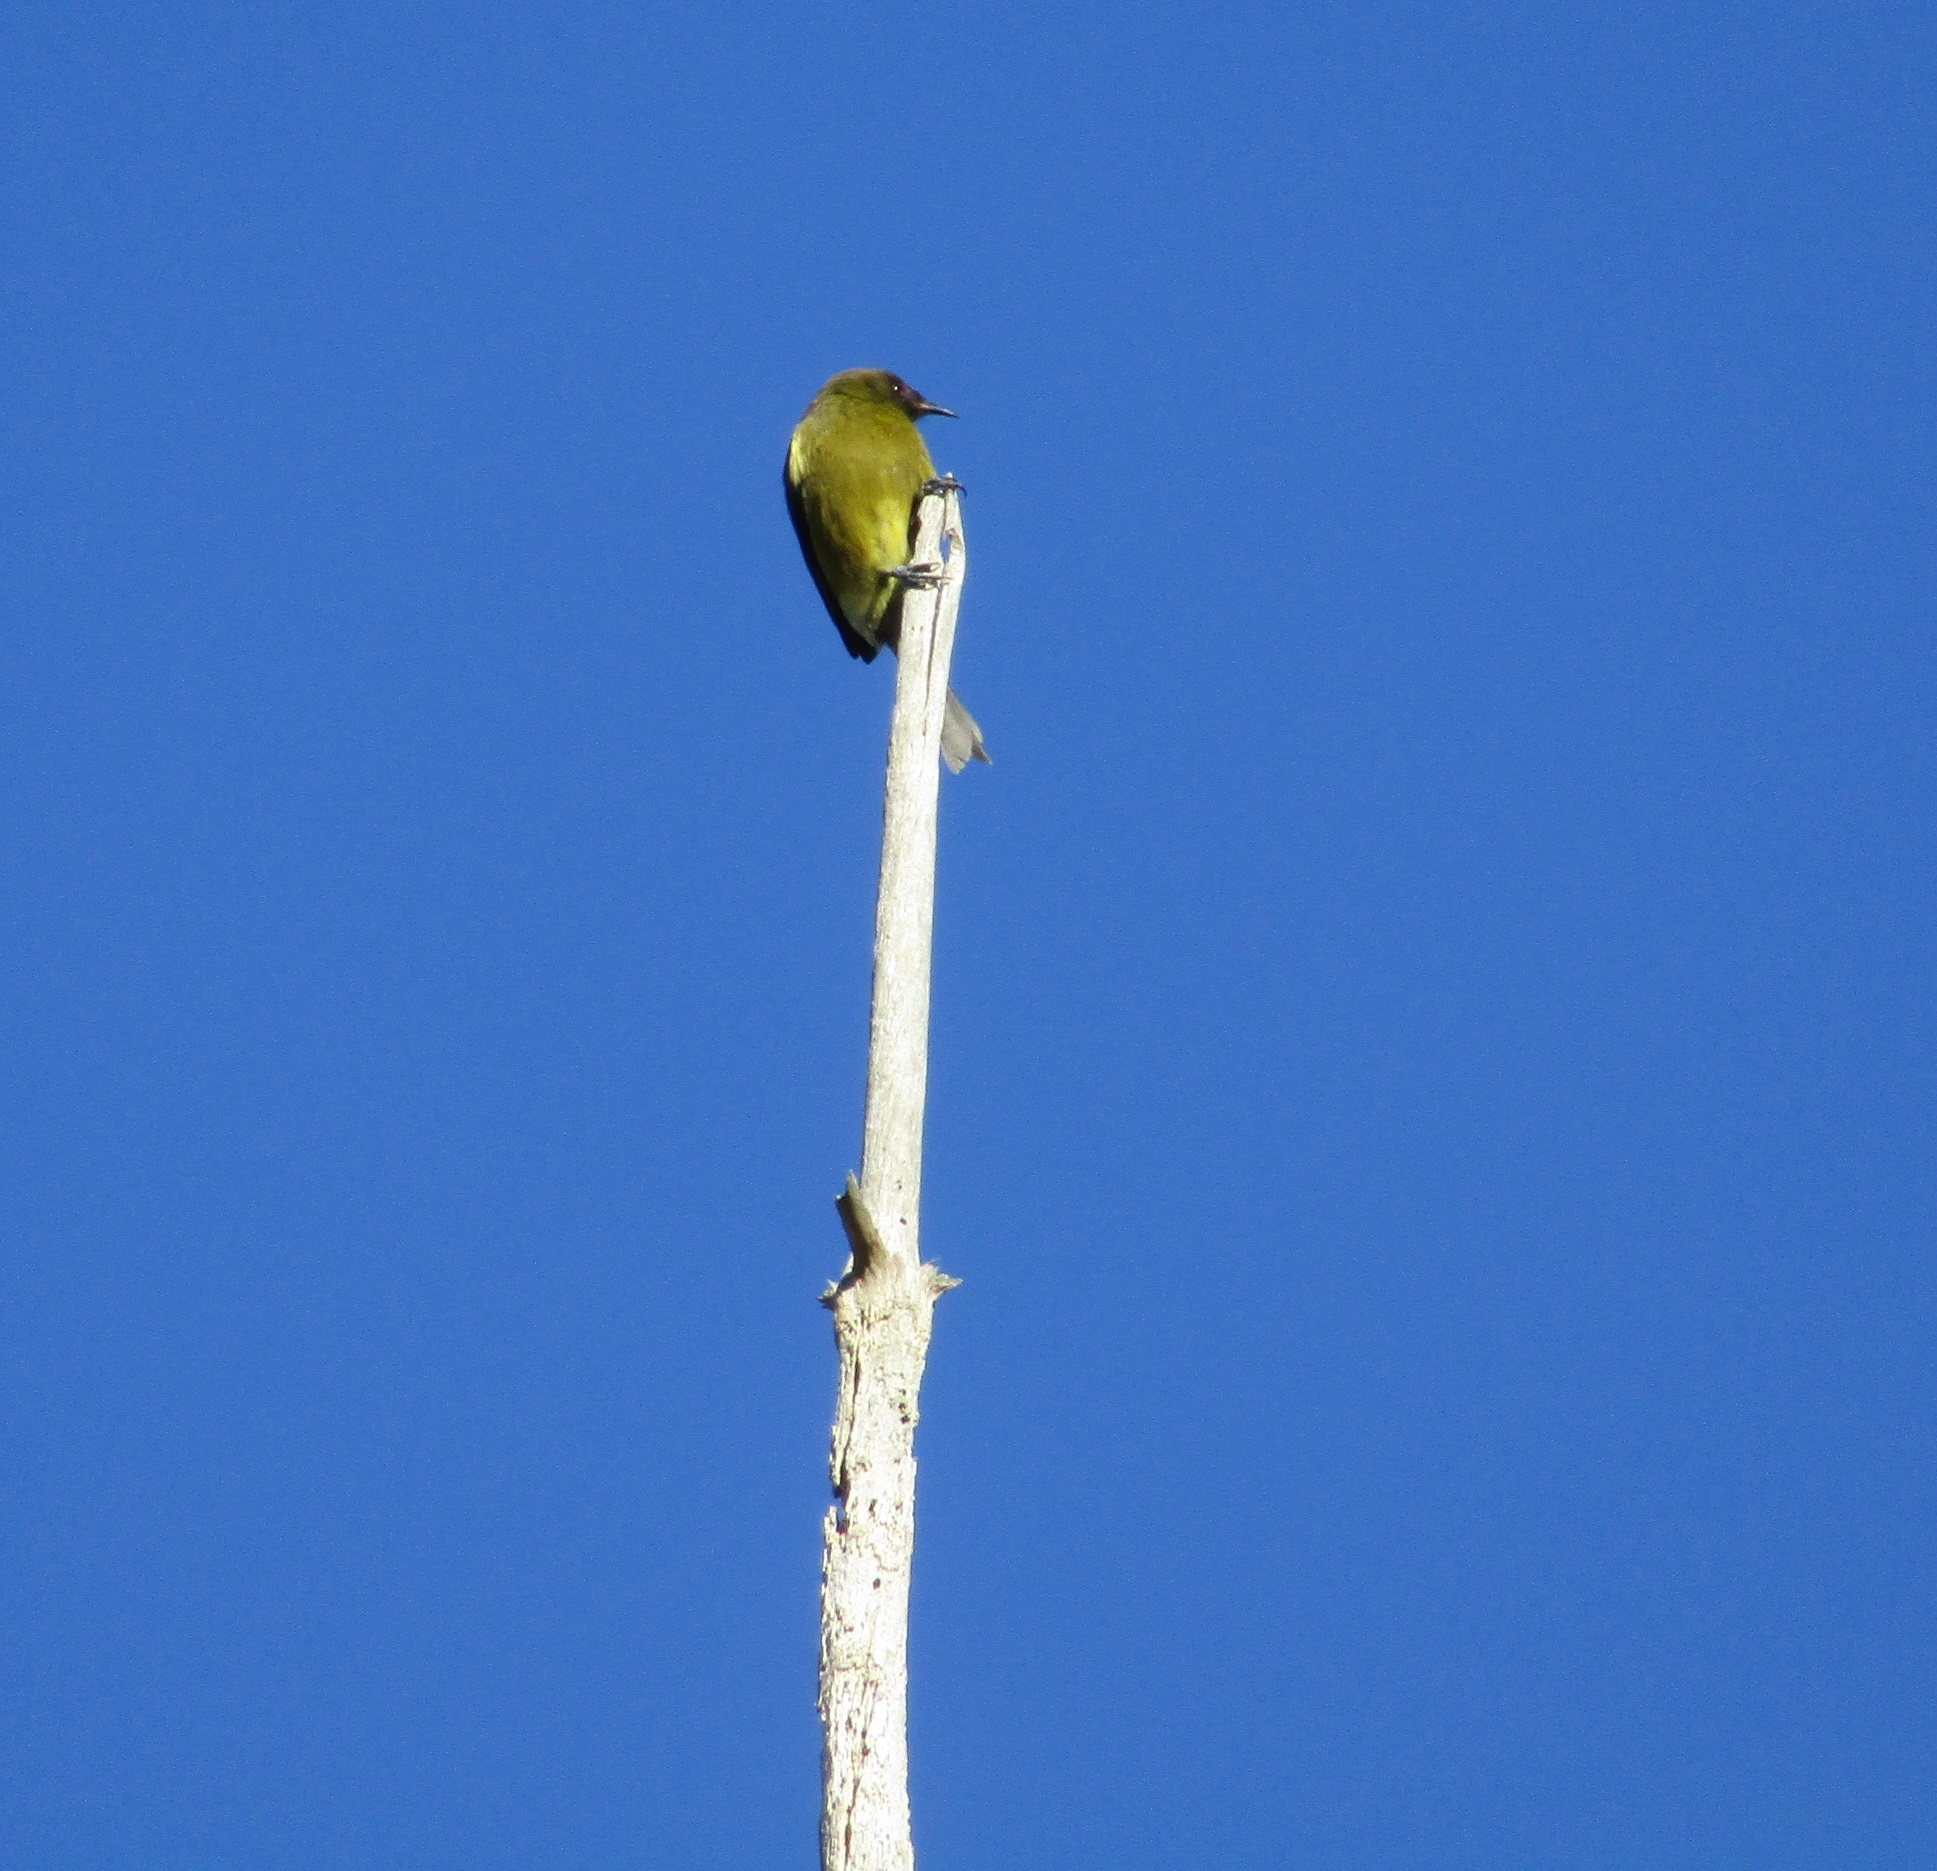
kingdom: Animalia
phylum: Chordata
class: Aves
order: Passeriformes
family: Meliphagidae
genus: Anthornis
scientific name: Anthornis melanura
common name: New zealand bellbird
